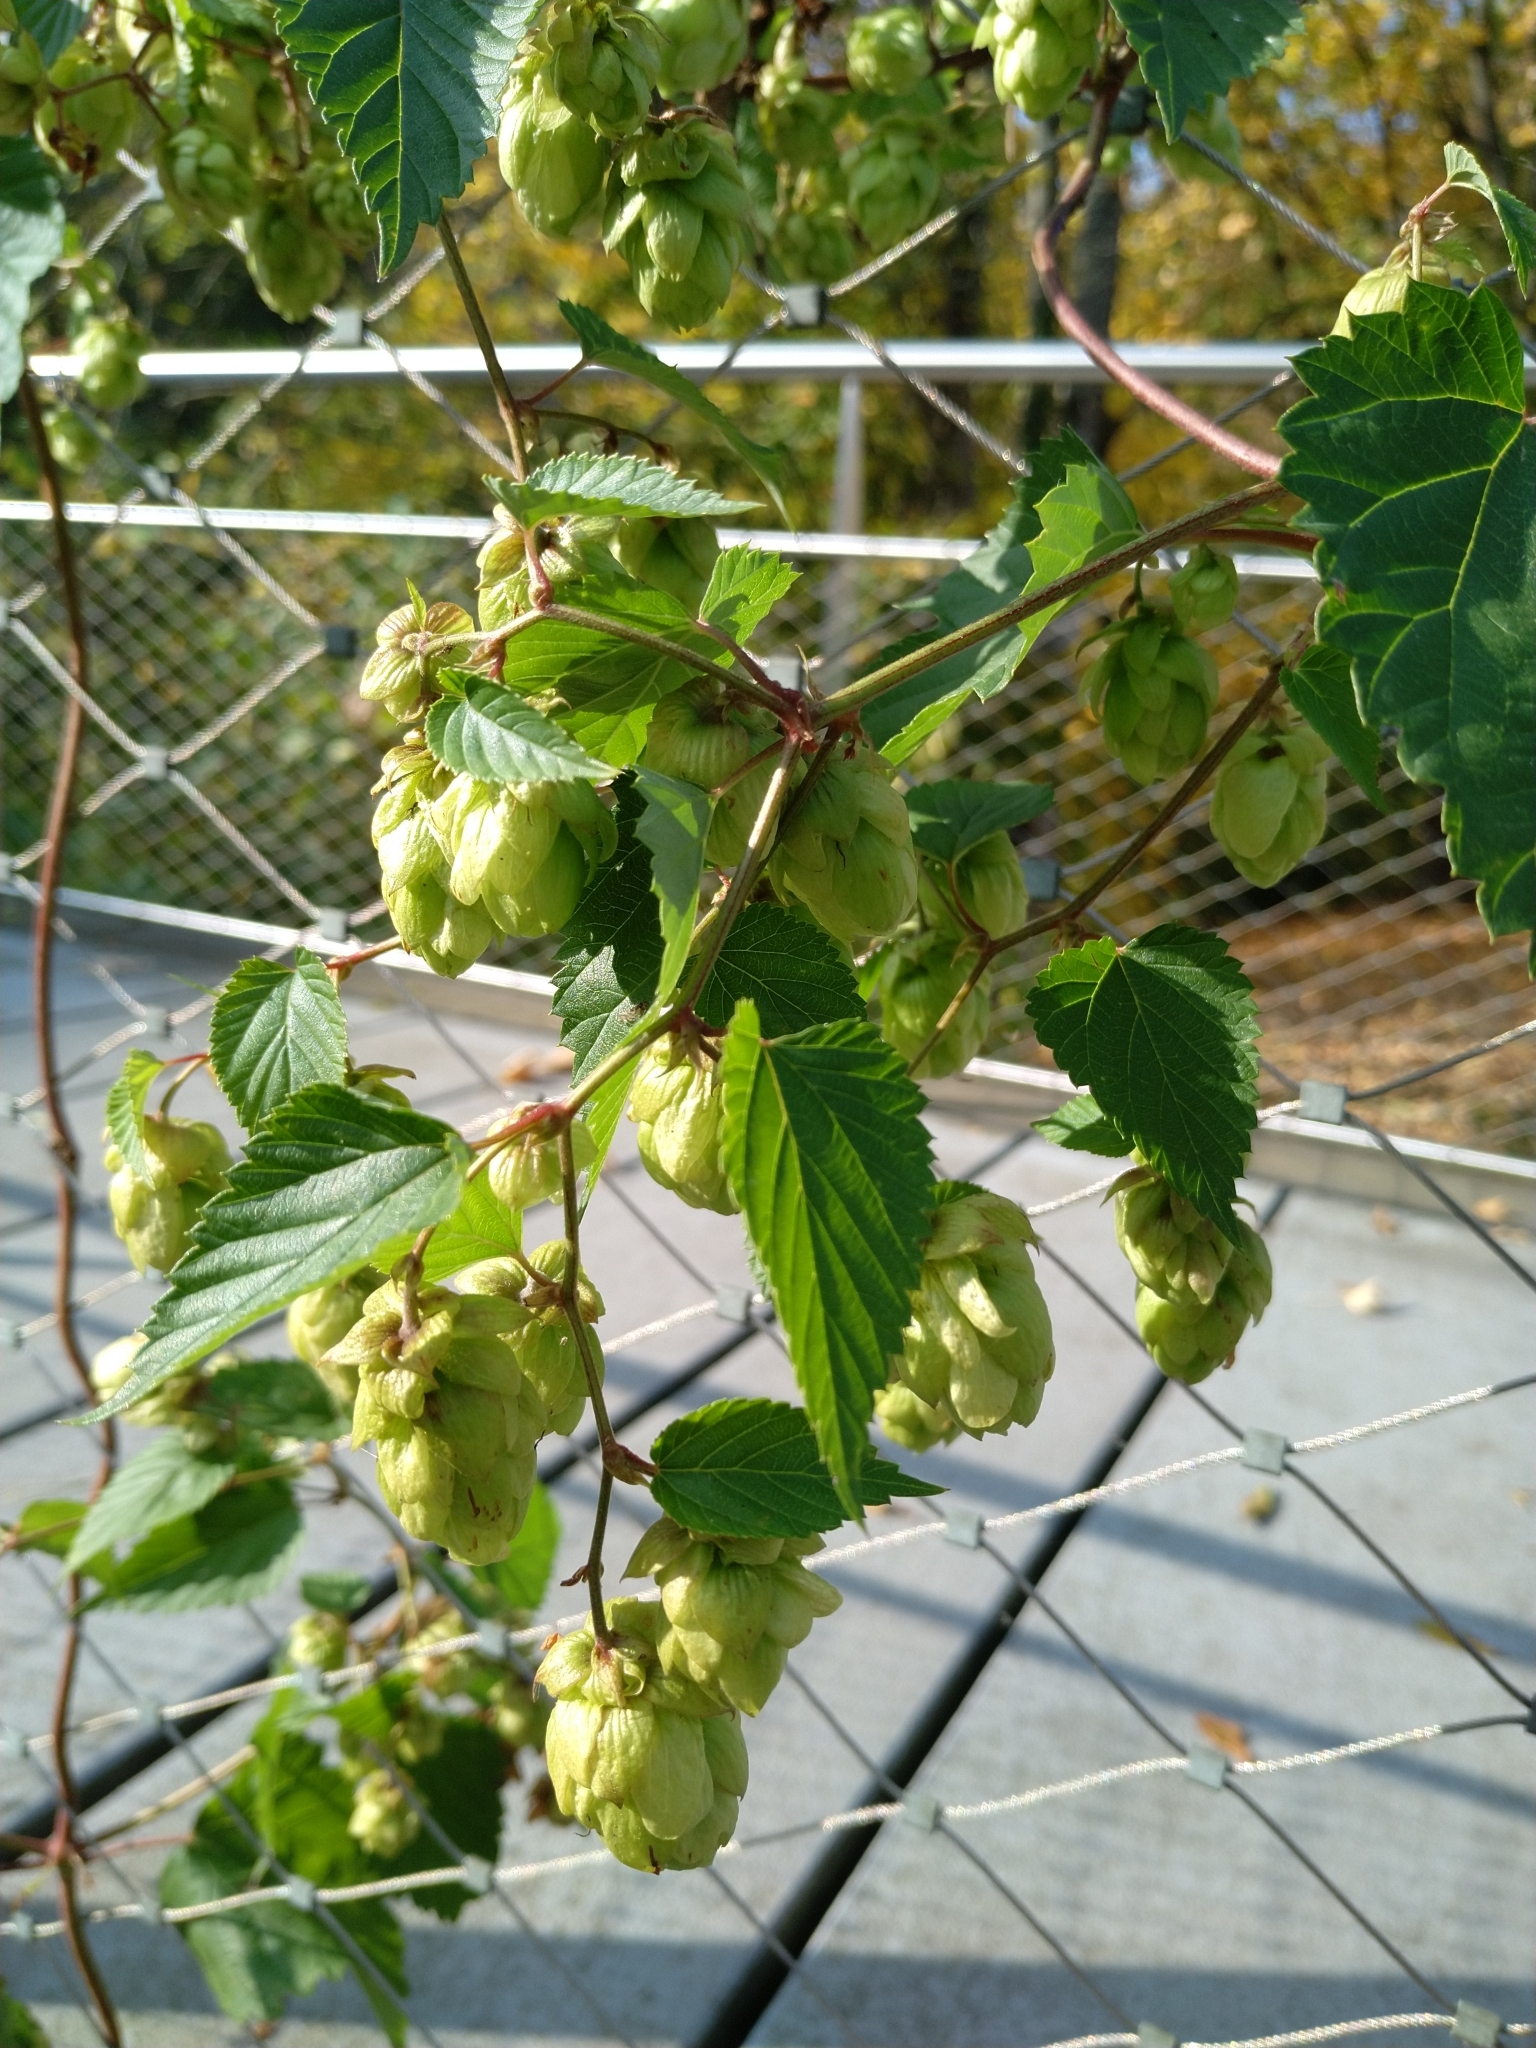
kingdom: Plantae
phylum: Tracheophyta
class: Magnoliopsida
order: Rosales
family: Cannabaceae
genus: Humulus
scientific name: Humulus lupulus
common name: Hop
